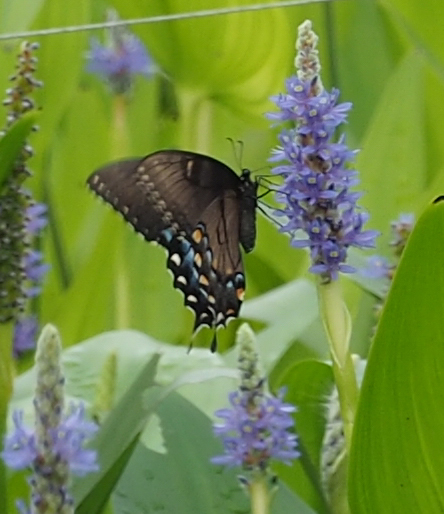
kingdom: Animalia
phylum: Arthropoda
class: Insecta
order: Lepidoptera
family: Papilionidae
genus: Papilio
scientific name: Papilio glaucus
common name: Tiger swallowtail
